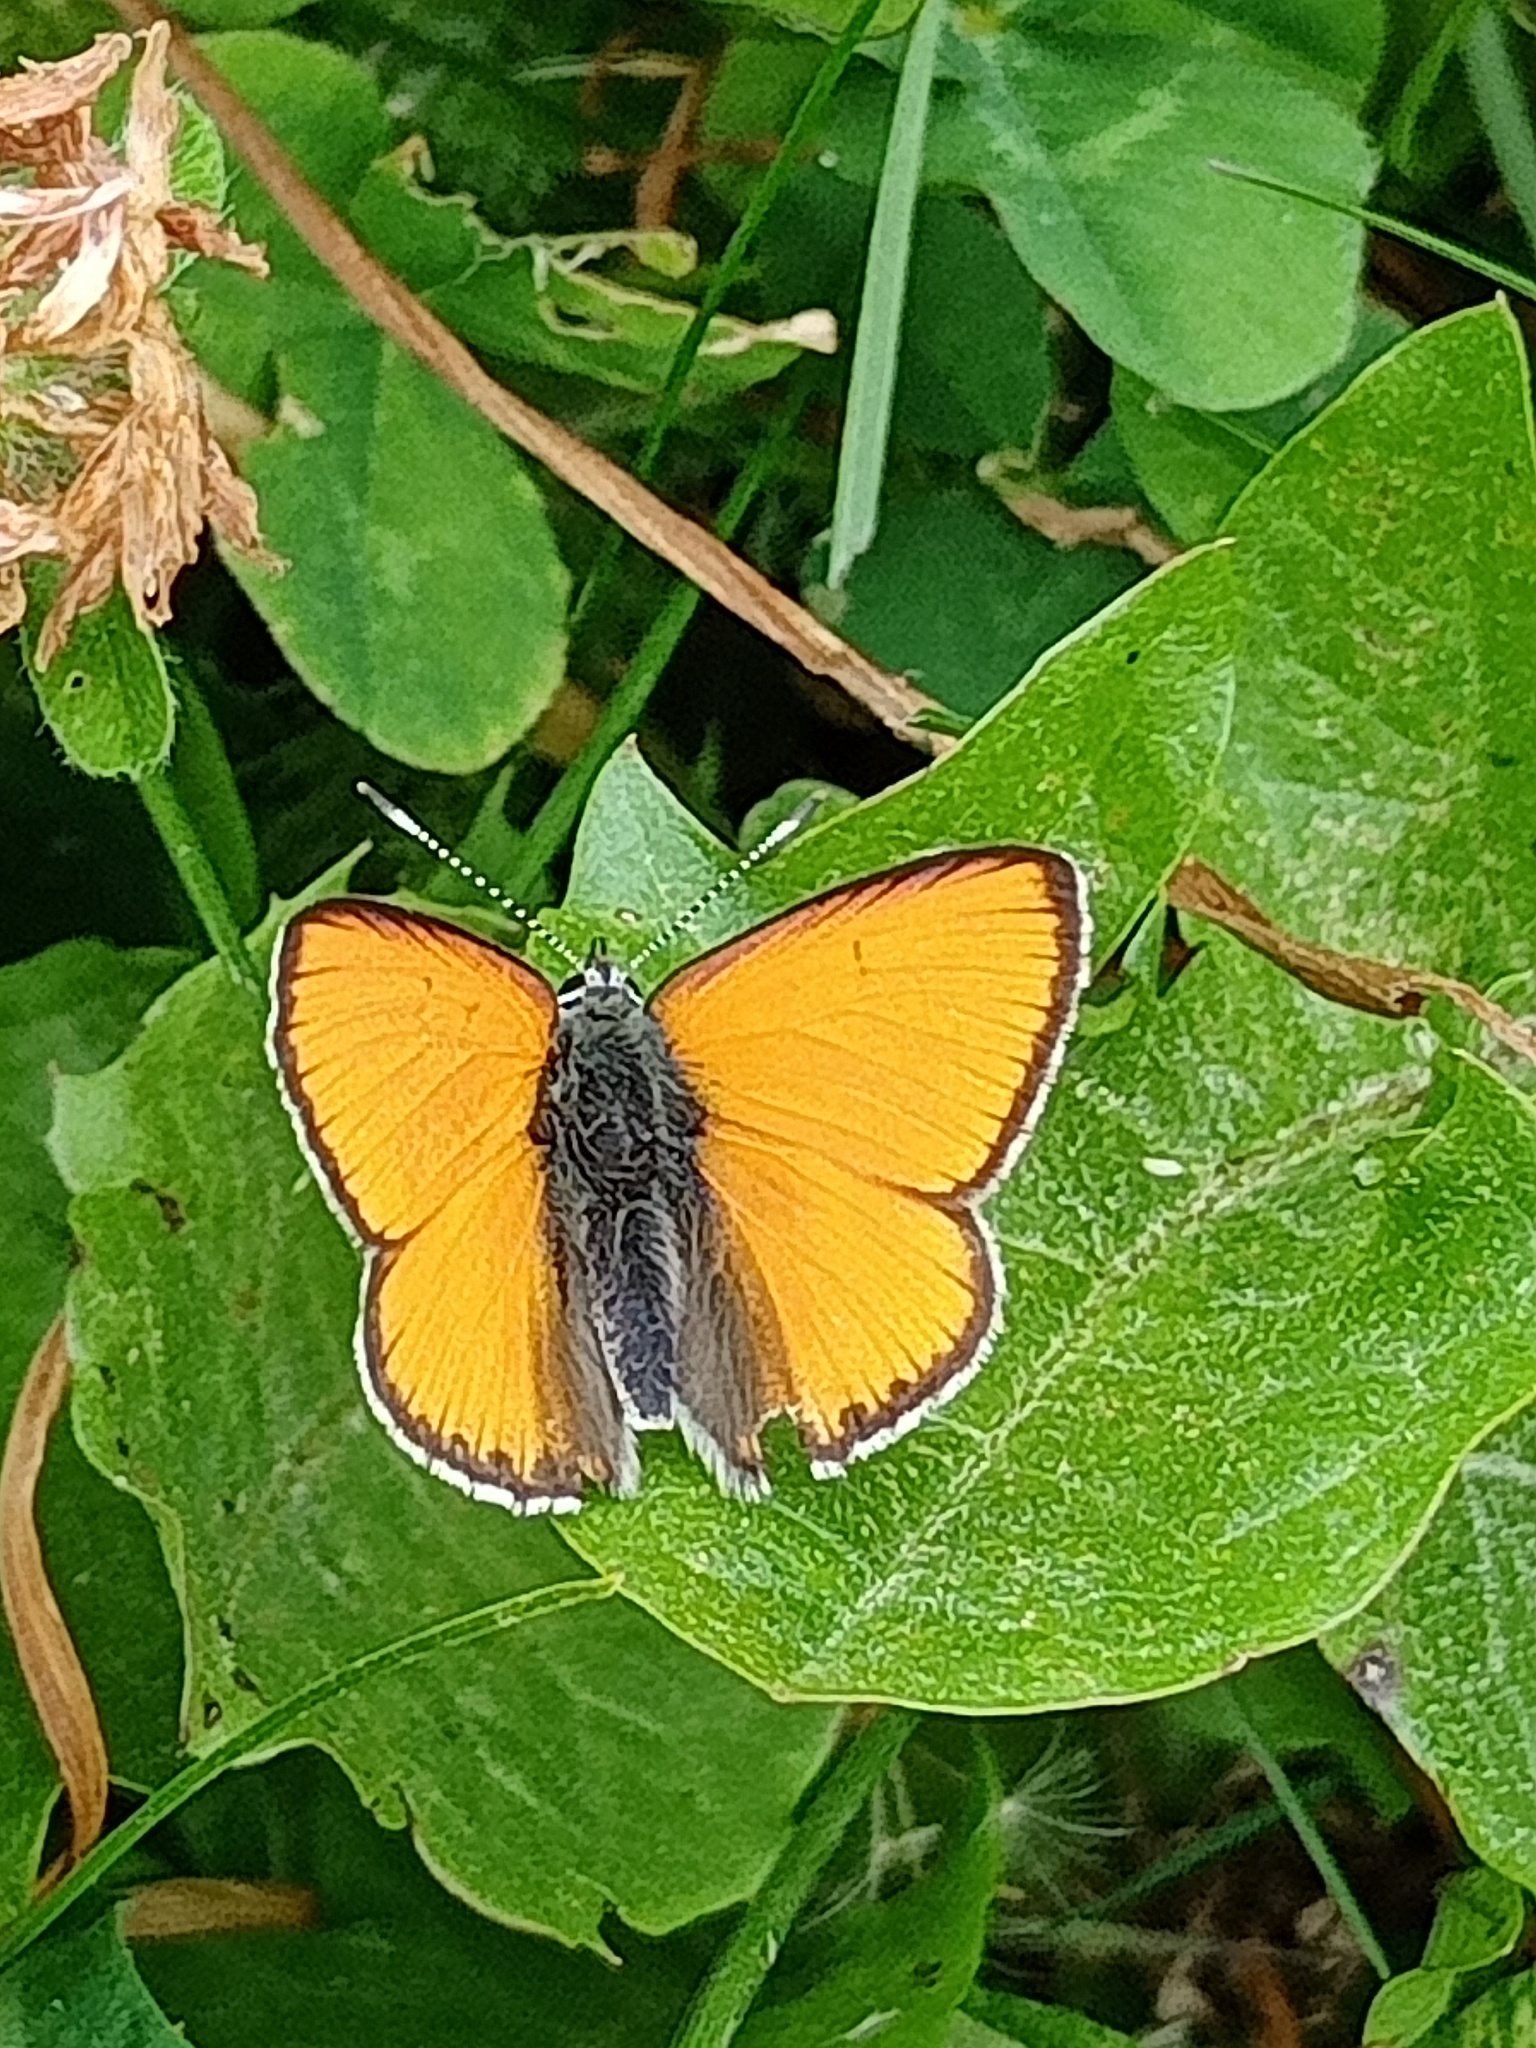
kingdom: Animalia
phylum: Arthropoda
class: Insecta
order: Lepidoptera
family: Lycaenidae
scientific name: Lycaenidae
